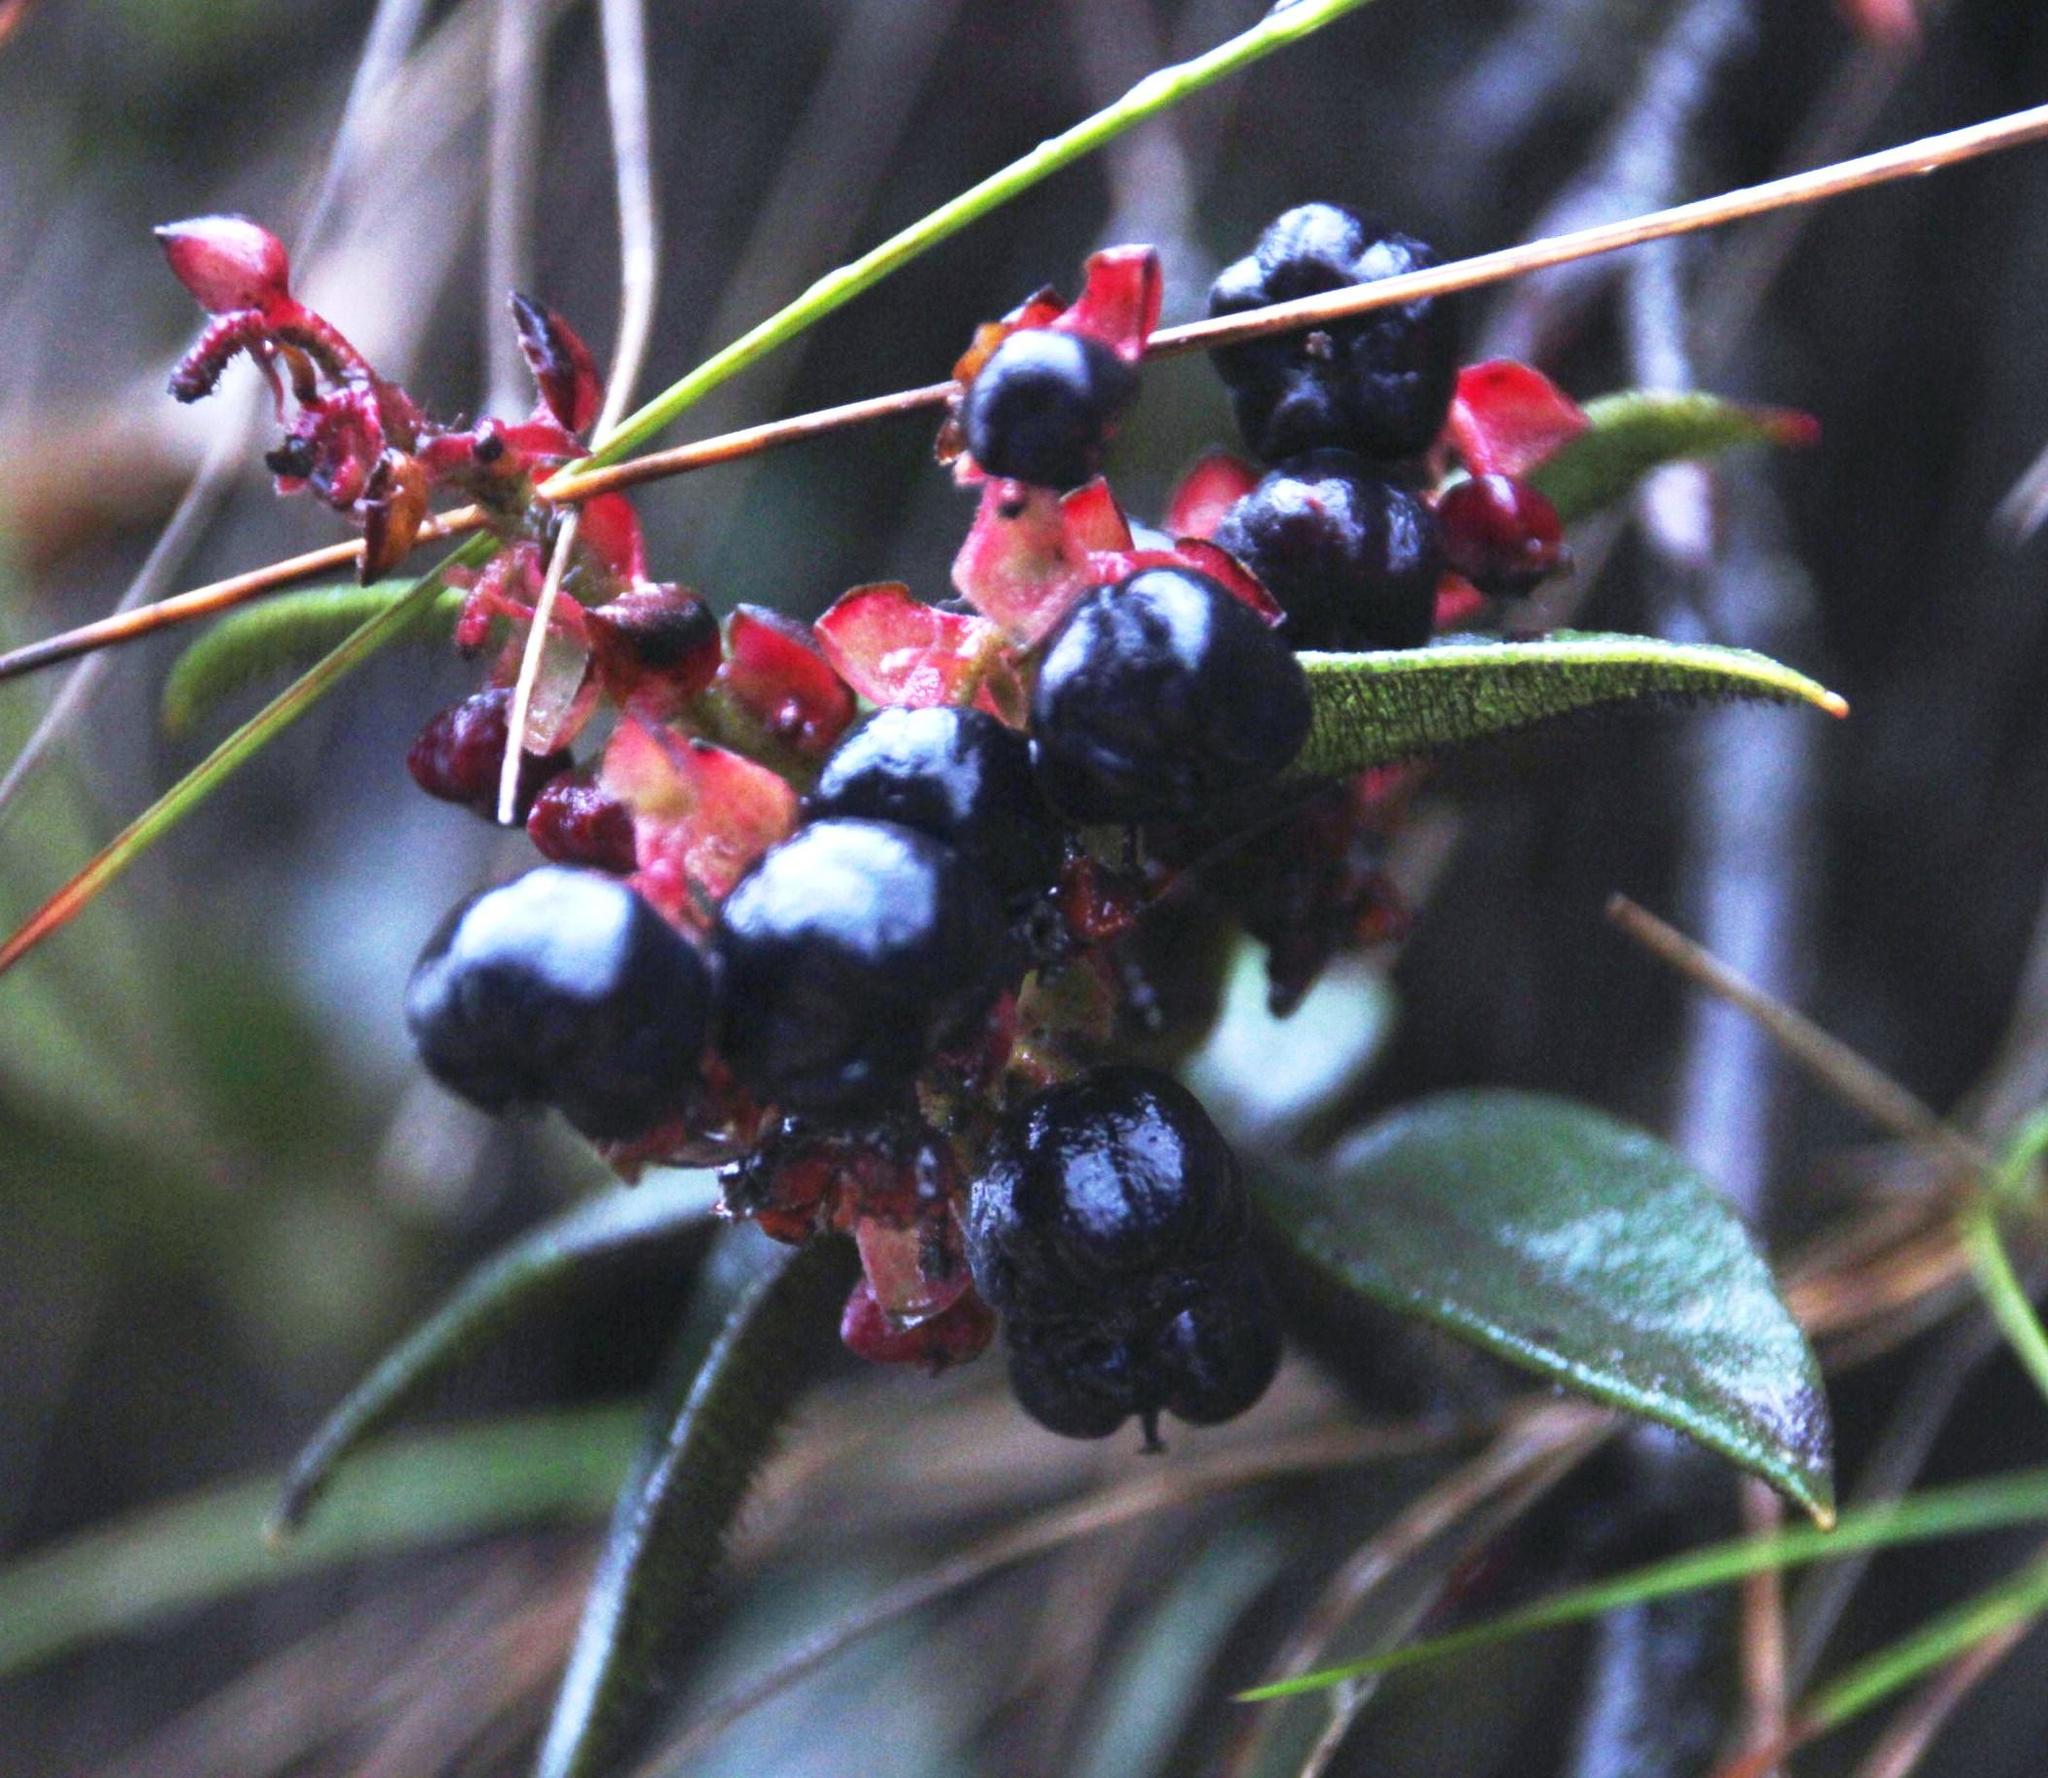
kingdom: Plantae
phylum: Tracheophyta
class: Magnoliopsida
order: Ericales
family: Ericaceae
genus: Gaultheria
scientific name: Gaultheria bracteata
